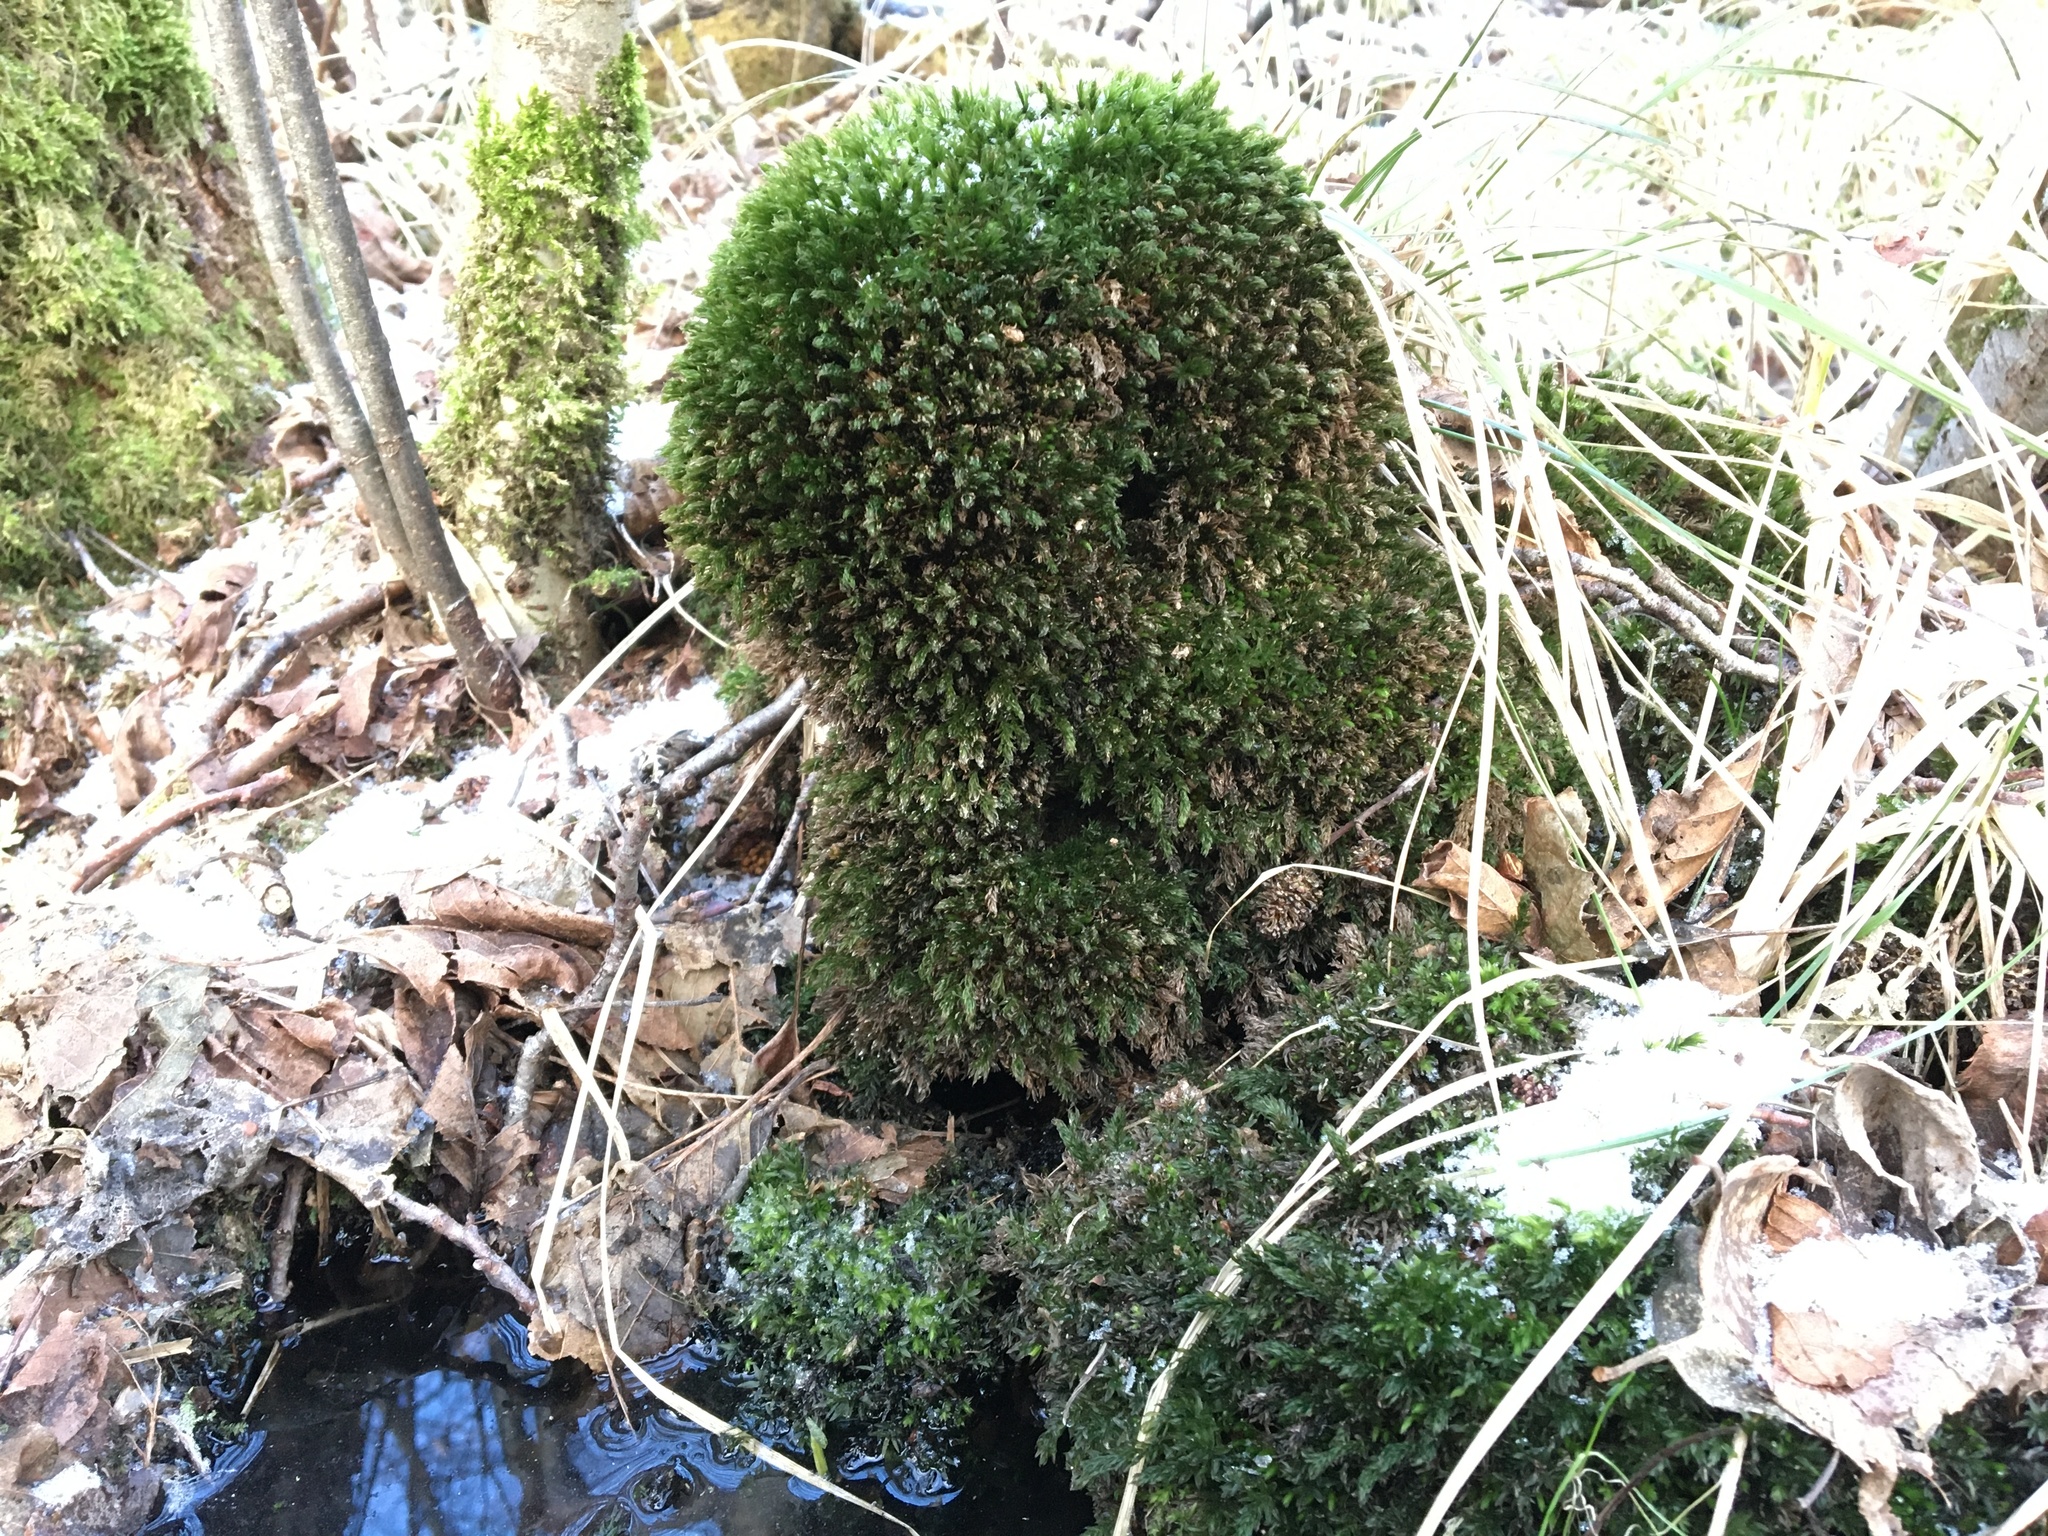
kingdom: Plantae
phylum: Bryophyta
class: Bryopsida
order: Bryales
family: Mniaceae
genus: Mnium
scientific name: Mnium hornum
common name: Swan's-neck leafy moss
